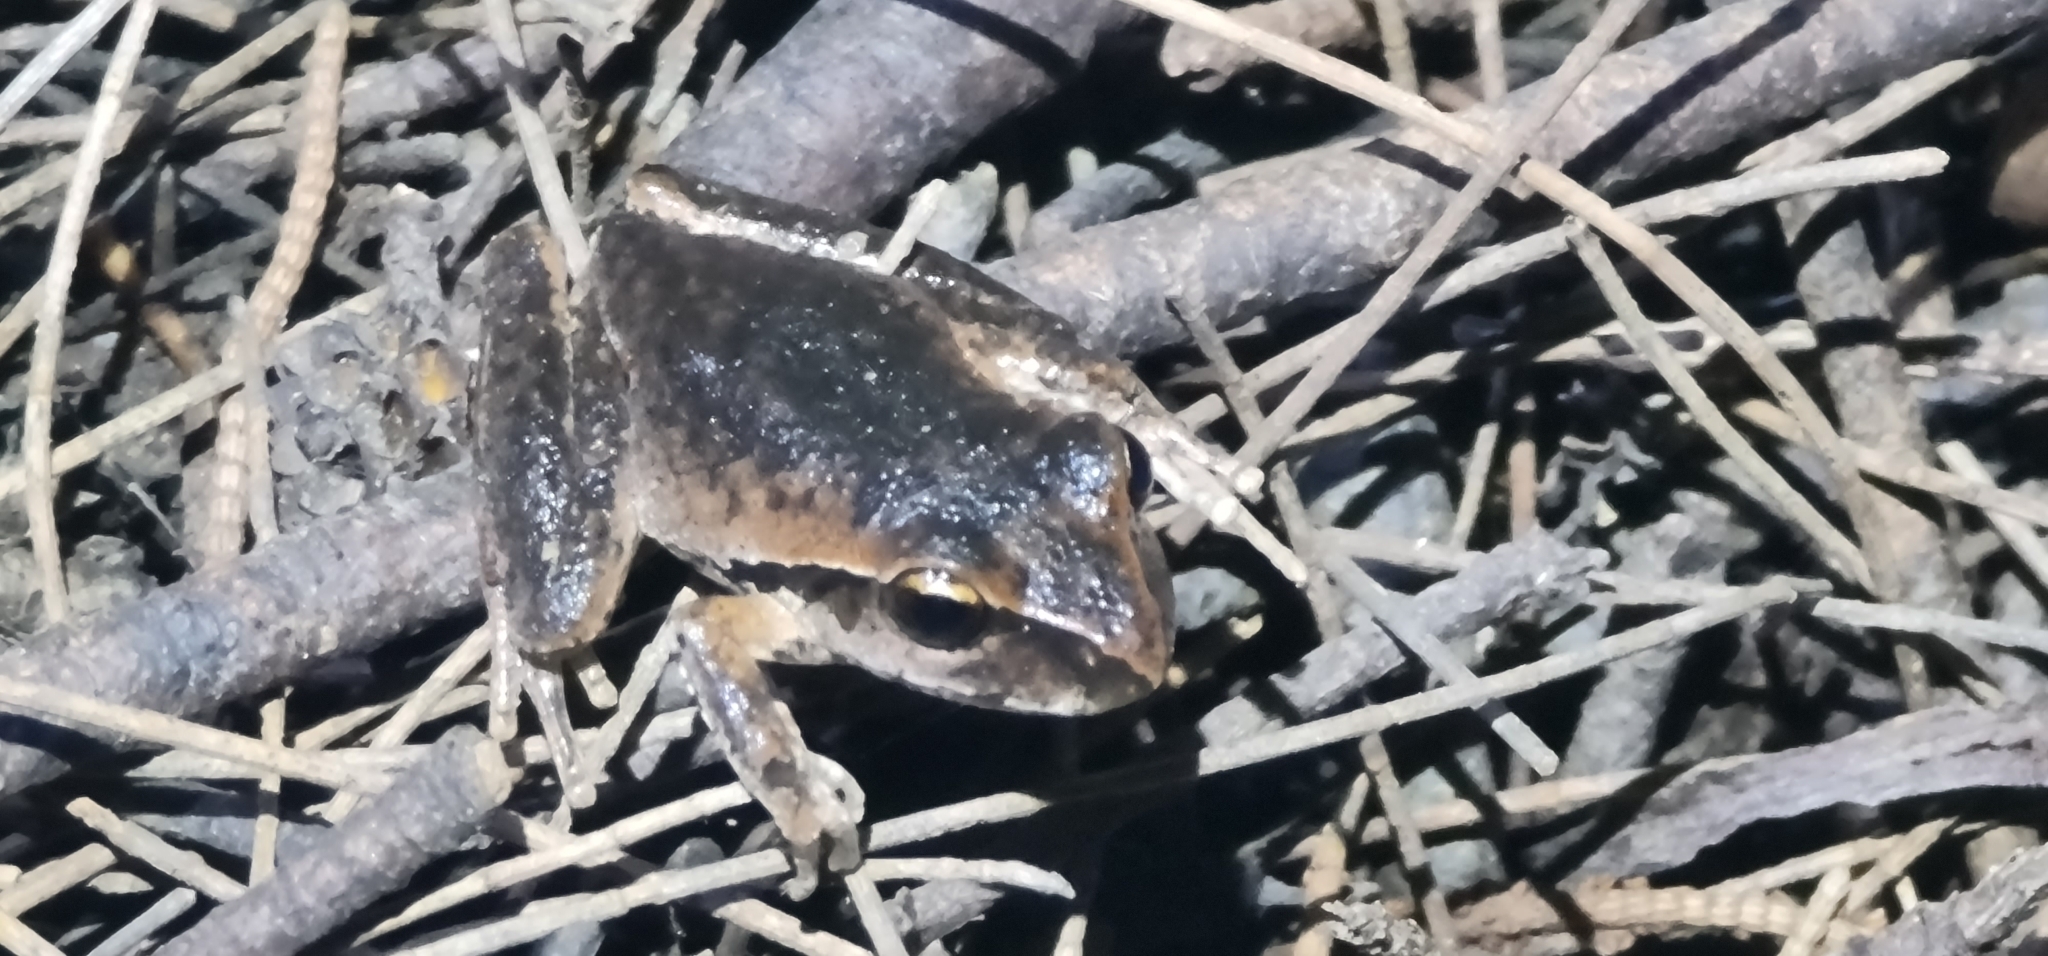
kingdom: Animalia
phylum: Chordata
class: Amphibia
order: Anura
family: Pelodryadidae
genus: Ranoidea
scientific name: Ranoidea wilcoxii
